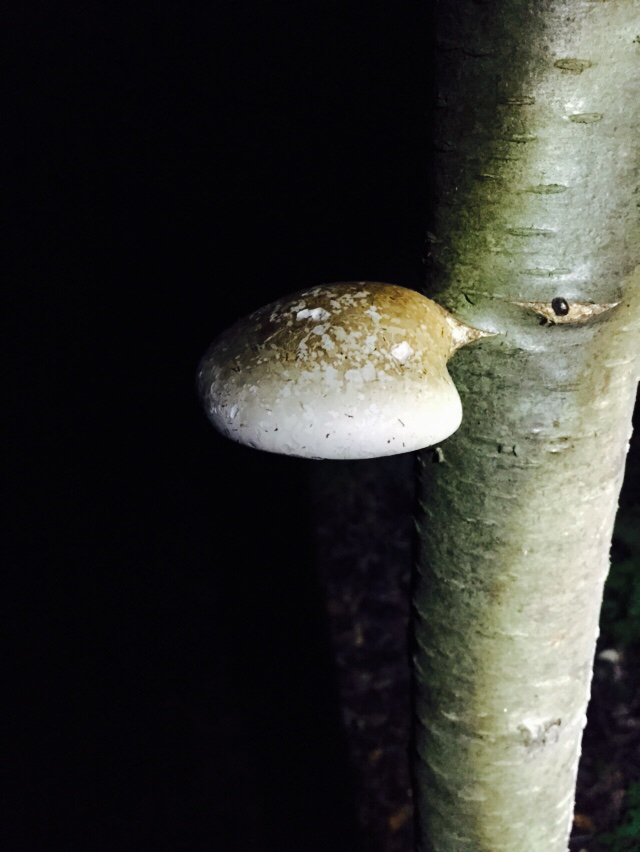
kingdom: Fungi
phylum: Basidiomycota
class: Agaricomycetes
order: Polyporales
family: Fomitopsidaceae
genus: Fomitopsis
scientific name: Fomitopsis betulina
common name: Birch polypore
